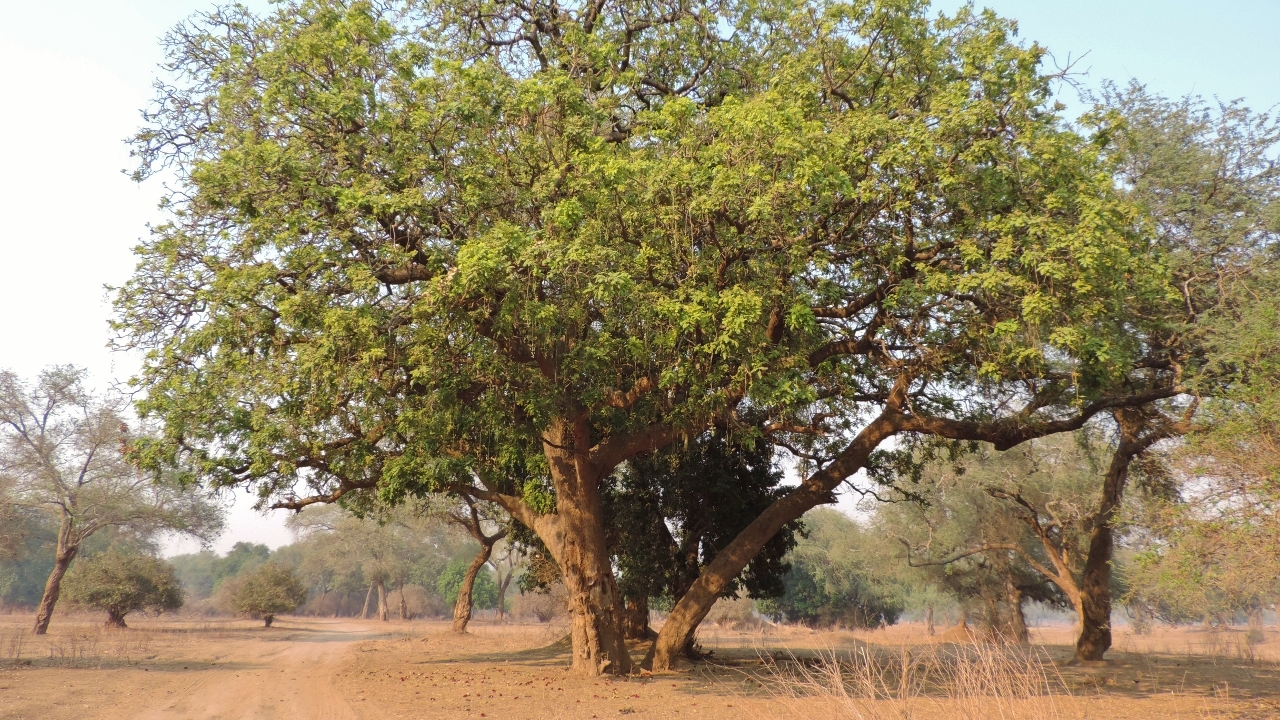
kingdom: Plantae
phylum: Tracheophyta
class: Magnoliopsida
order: Lamiales
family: Bignoniaceae
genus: Kigelia
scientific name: Kigelia africana
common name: Sausage tree
